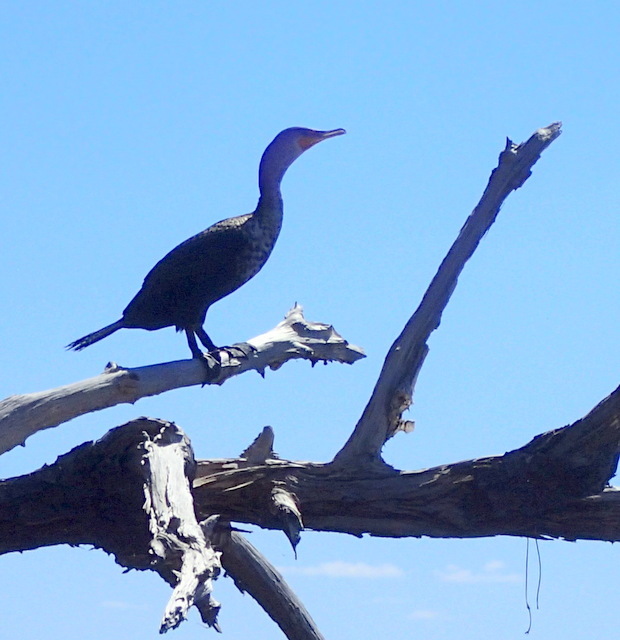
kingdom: Animalia
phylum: Chordata
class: Aves
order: Suliformes
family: Phalacrocoracidae
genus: Phalacrocorax
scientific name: Phalacrocorax auritus
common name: Double-crested cormorant
